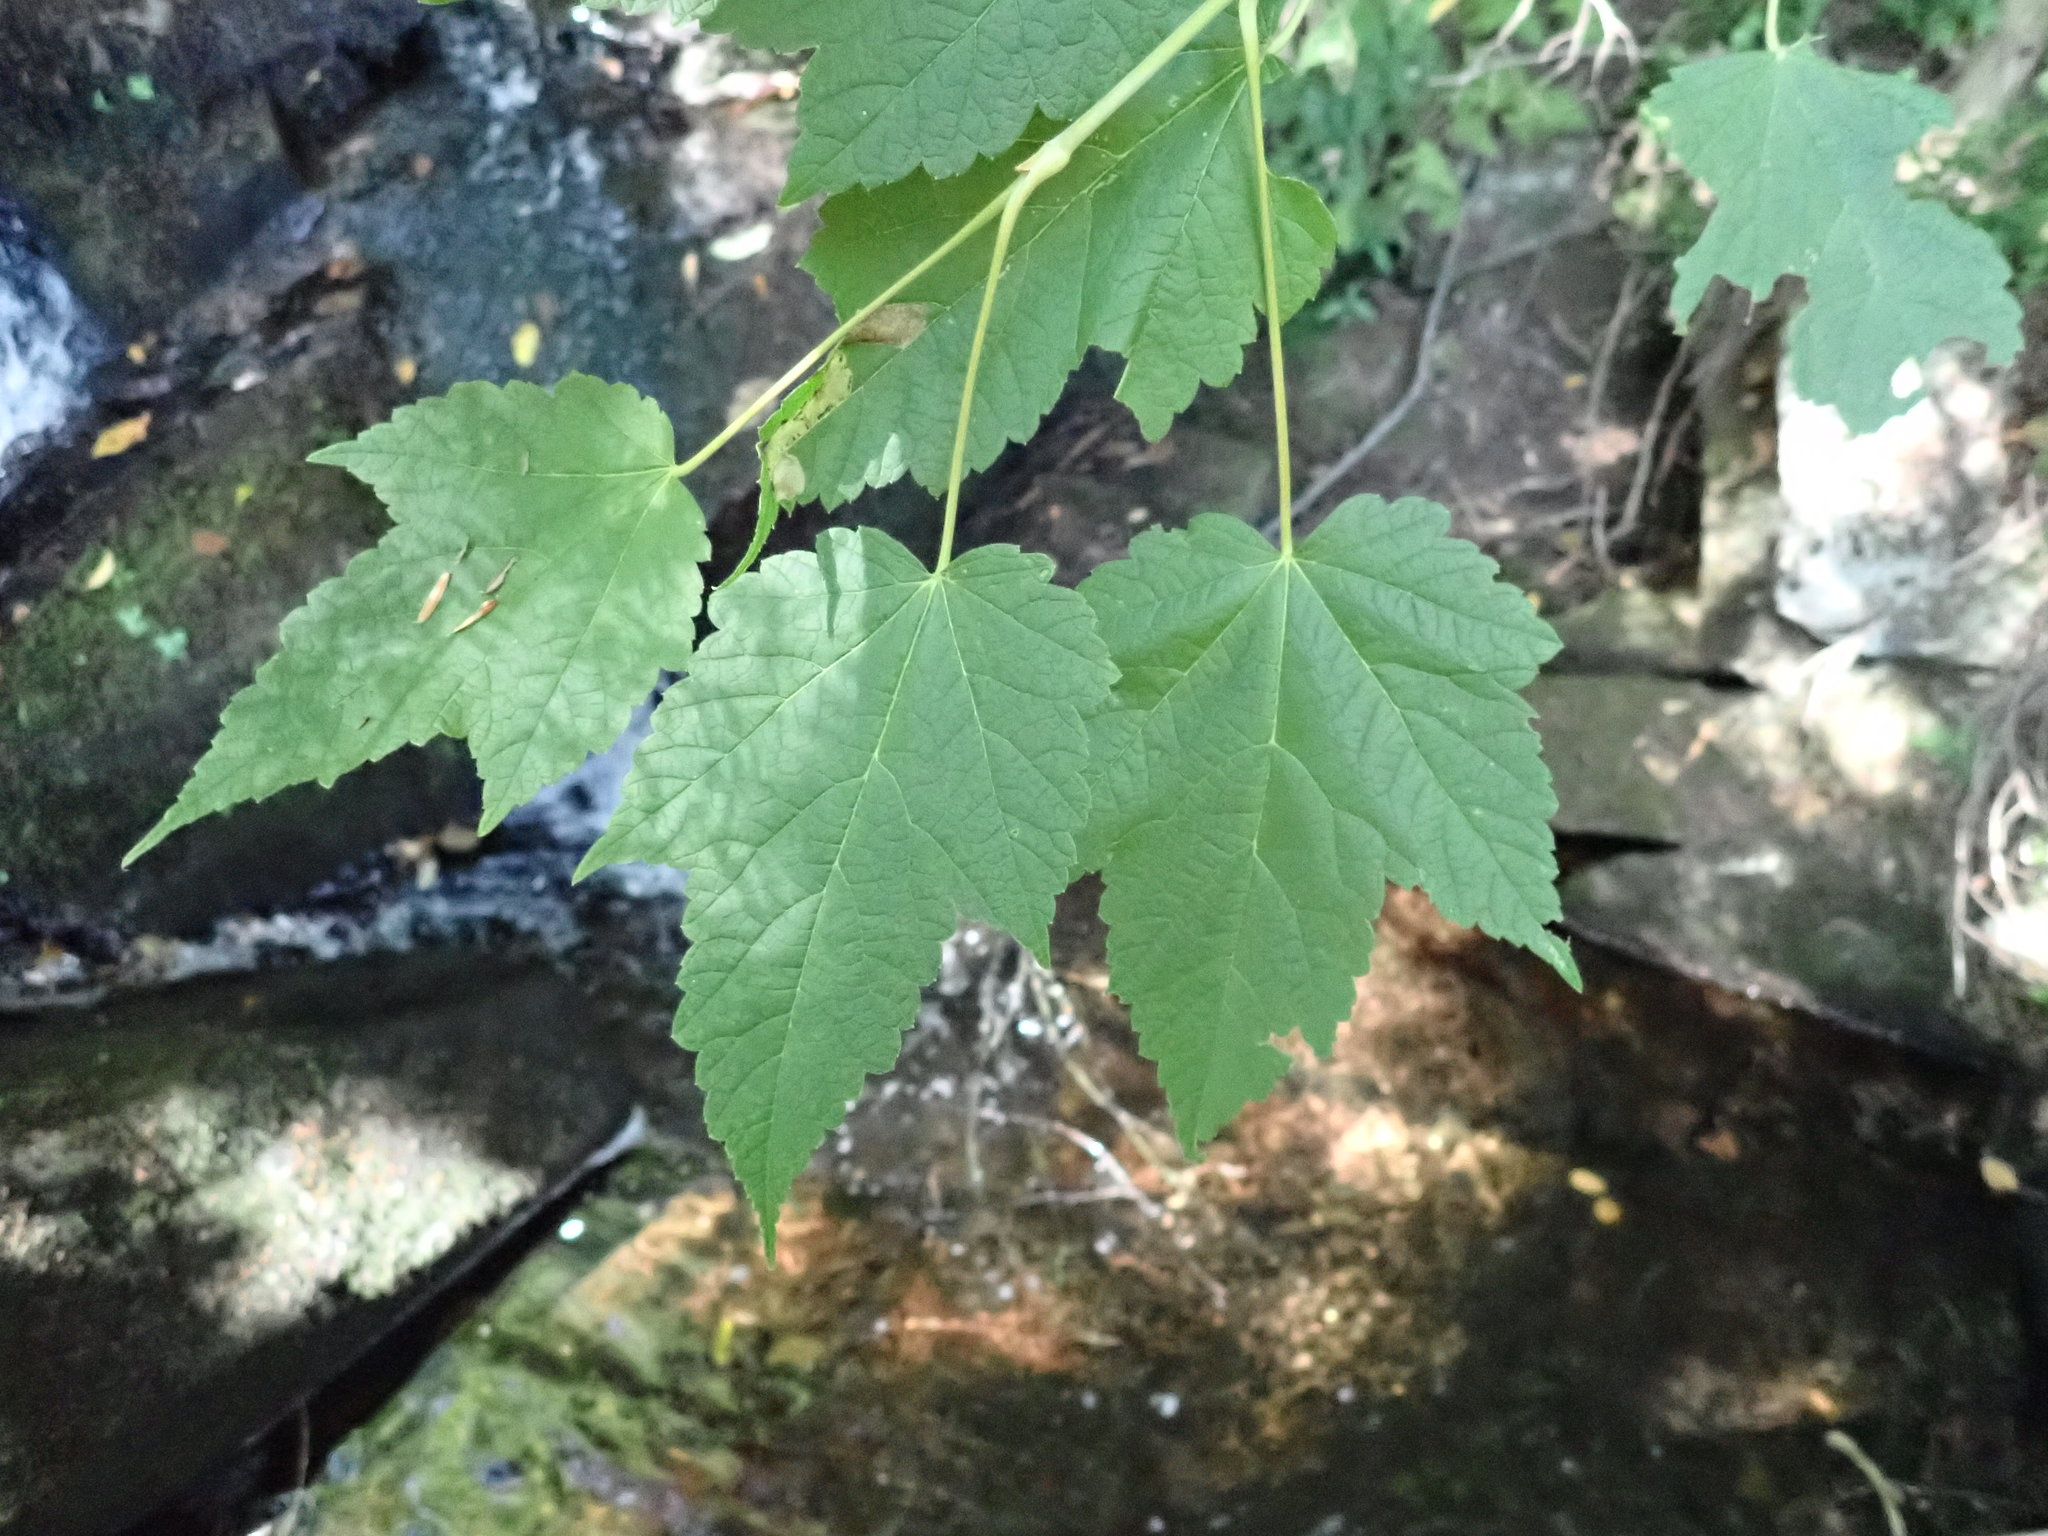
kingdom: Plantae
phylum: Tracheophyta
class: Magnoliopsida
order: Sapindales
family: Sapindaceae
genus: Acer
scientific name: Acer spicatum
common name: Mountain maple
